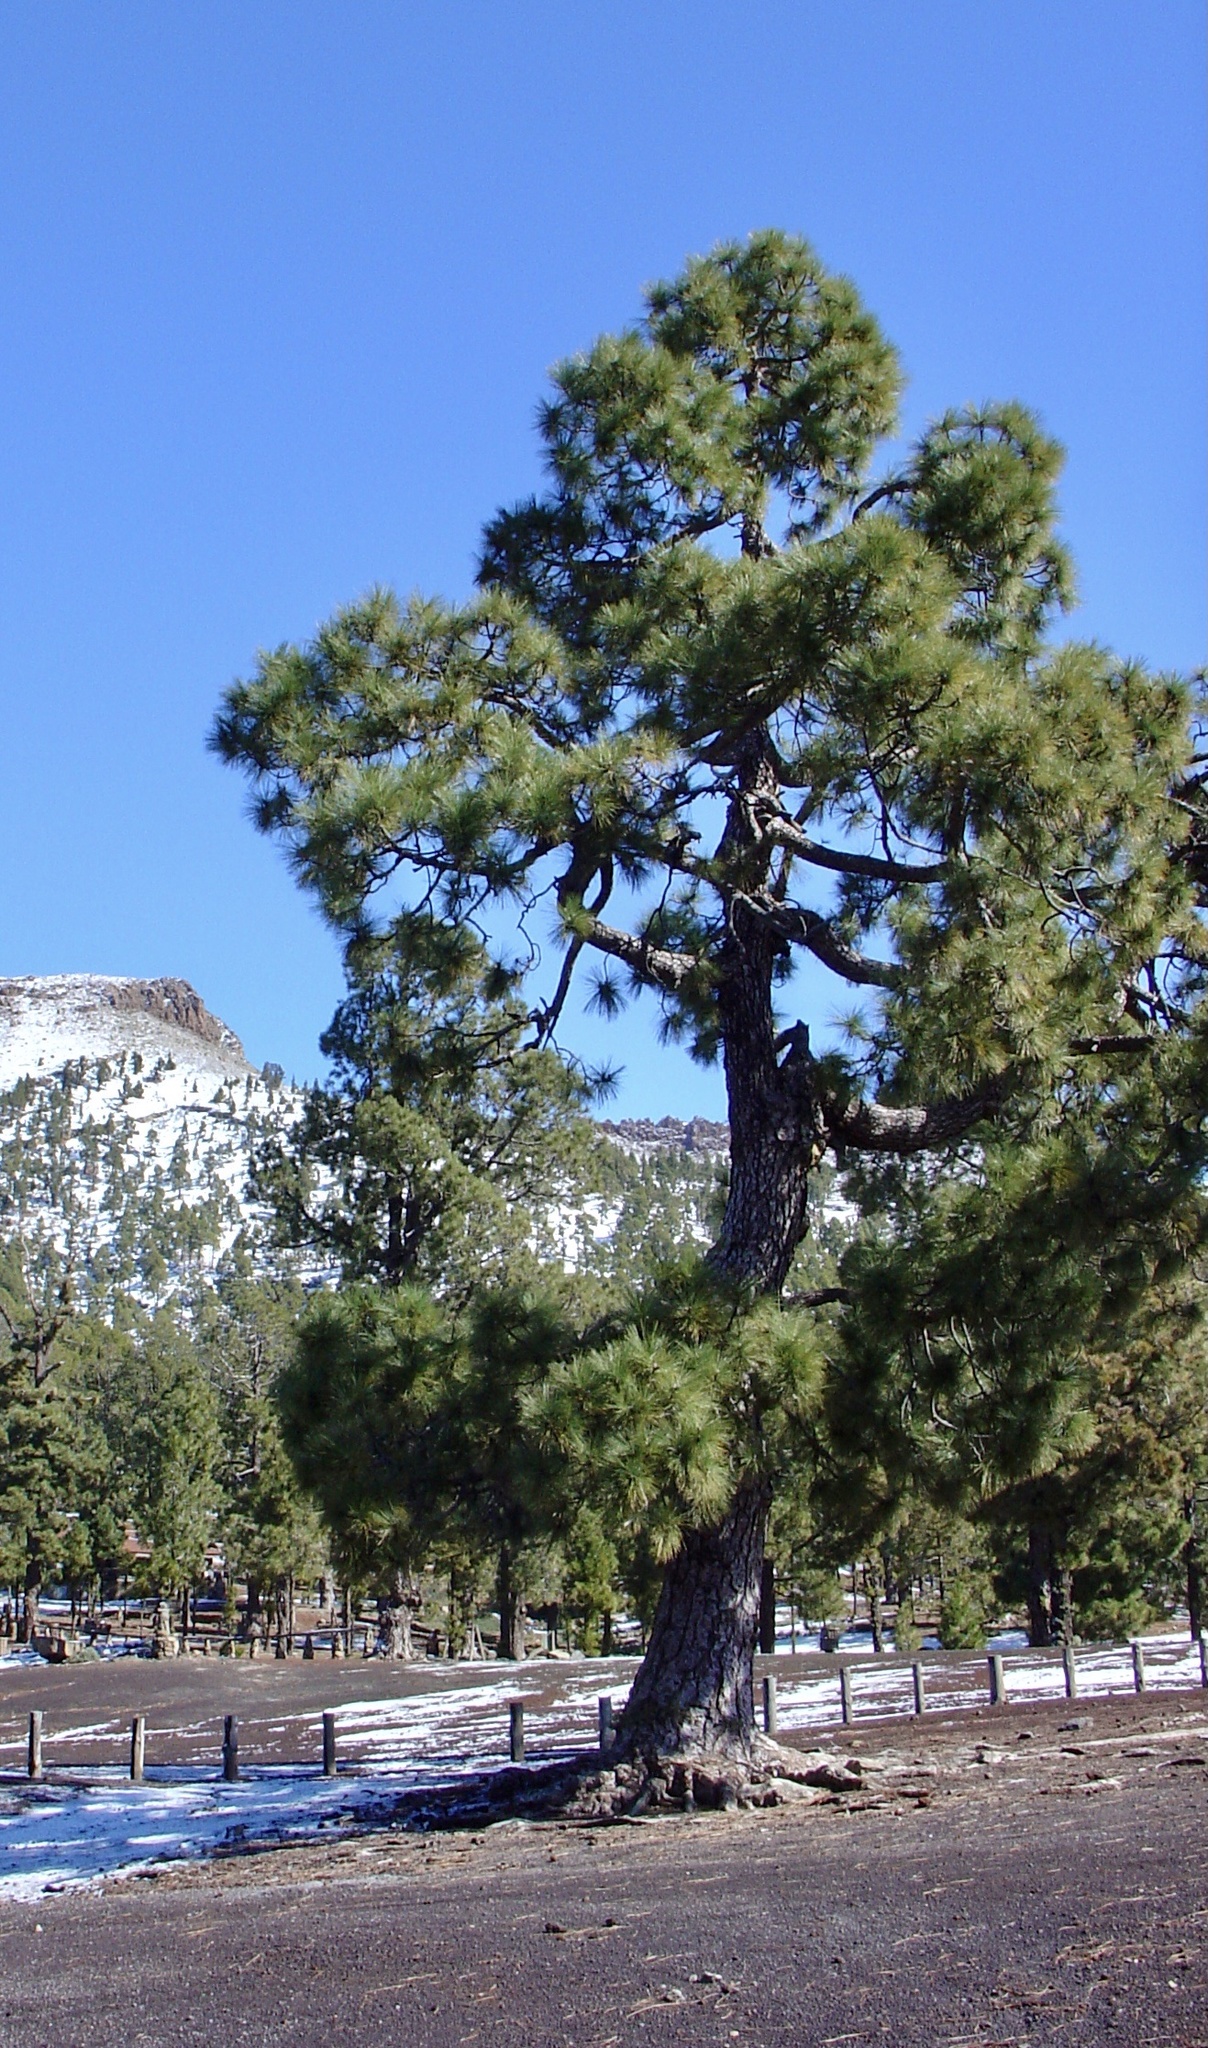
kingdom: Plantae
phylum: Tracheophyta
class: Pinopsida
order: Pinales
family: Pinaceae
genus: Pinus
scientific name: Pinus canariensis
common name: Canary islands pine
